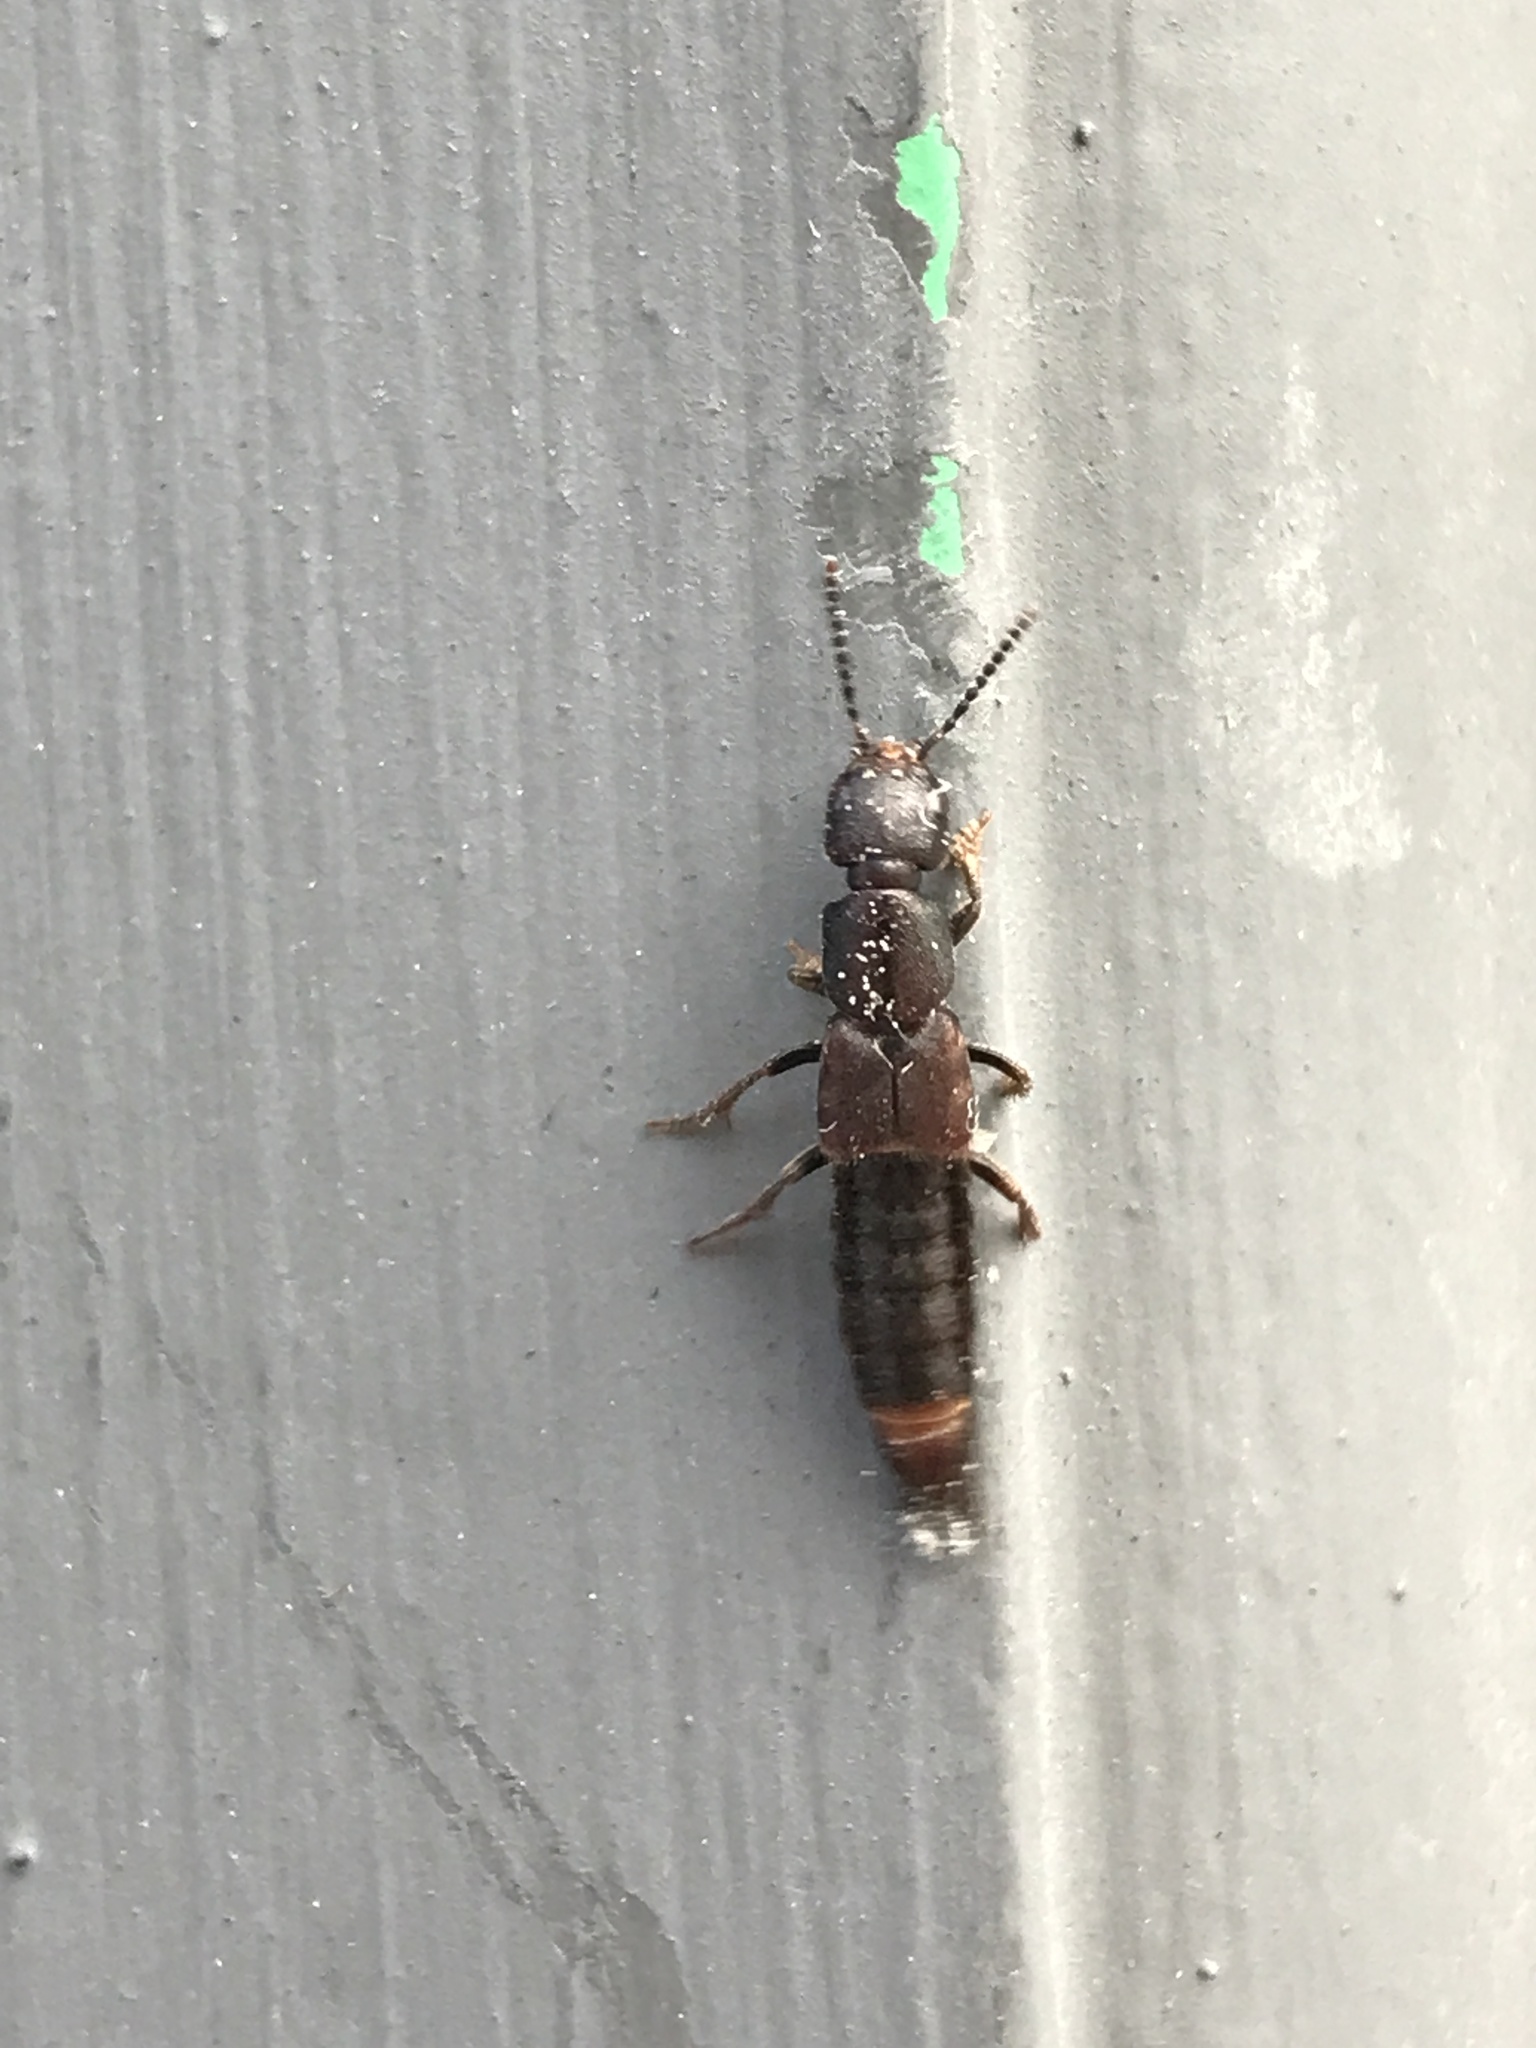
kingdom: Animalia
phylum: Arthropoda
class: Insecta
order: Coleoptera
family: Staphylinidae
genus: Platydracus
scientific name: Platydracus
